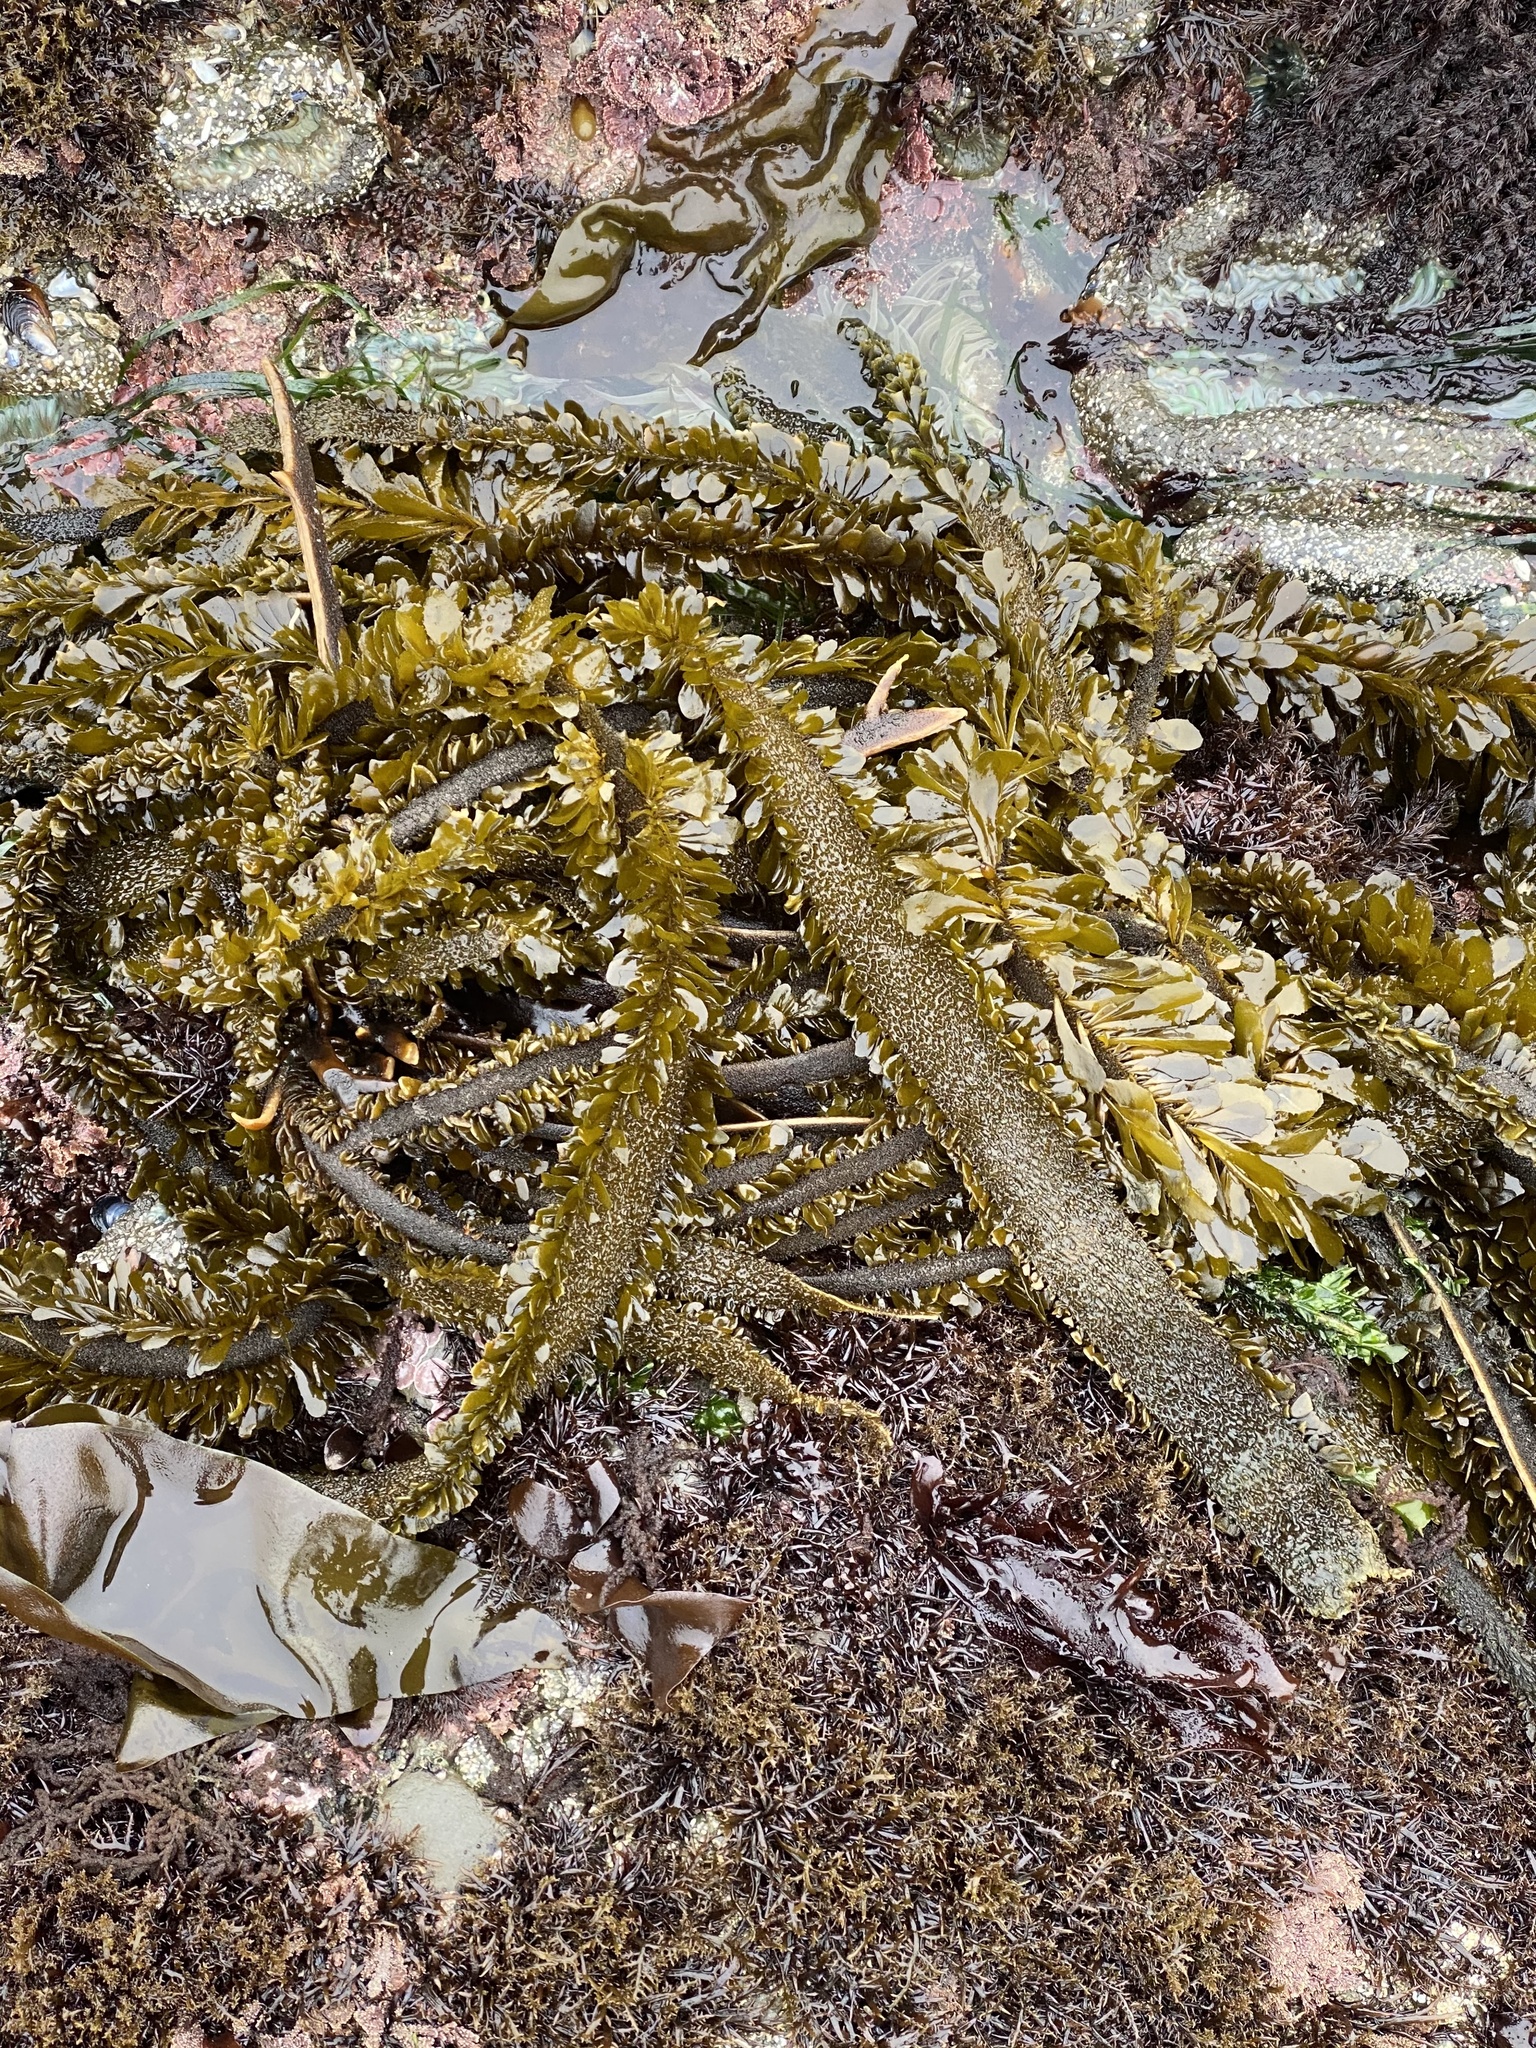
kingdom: Chromista
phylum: Ochrophyta
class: Phaeophyceae
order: Laminariales
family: Lessoniaceae
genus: Egregia
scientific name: Egregia menziesii
